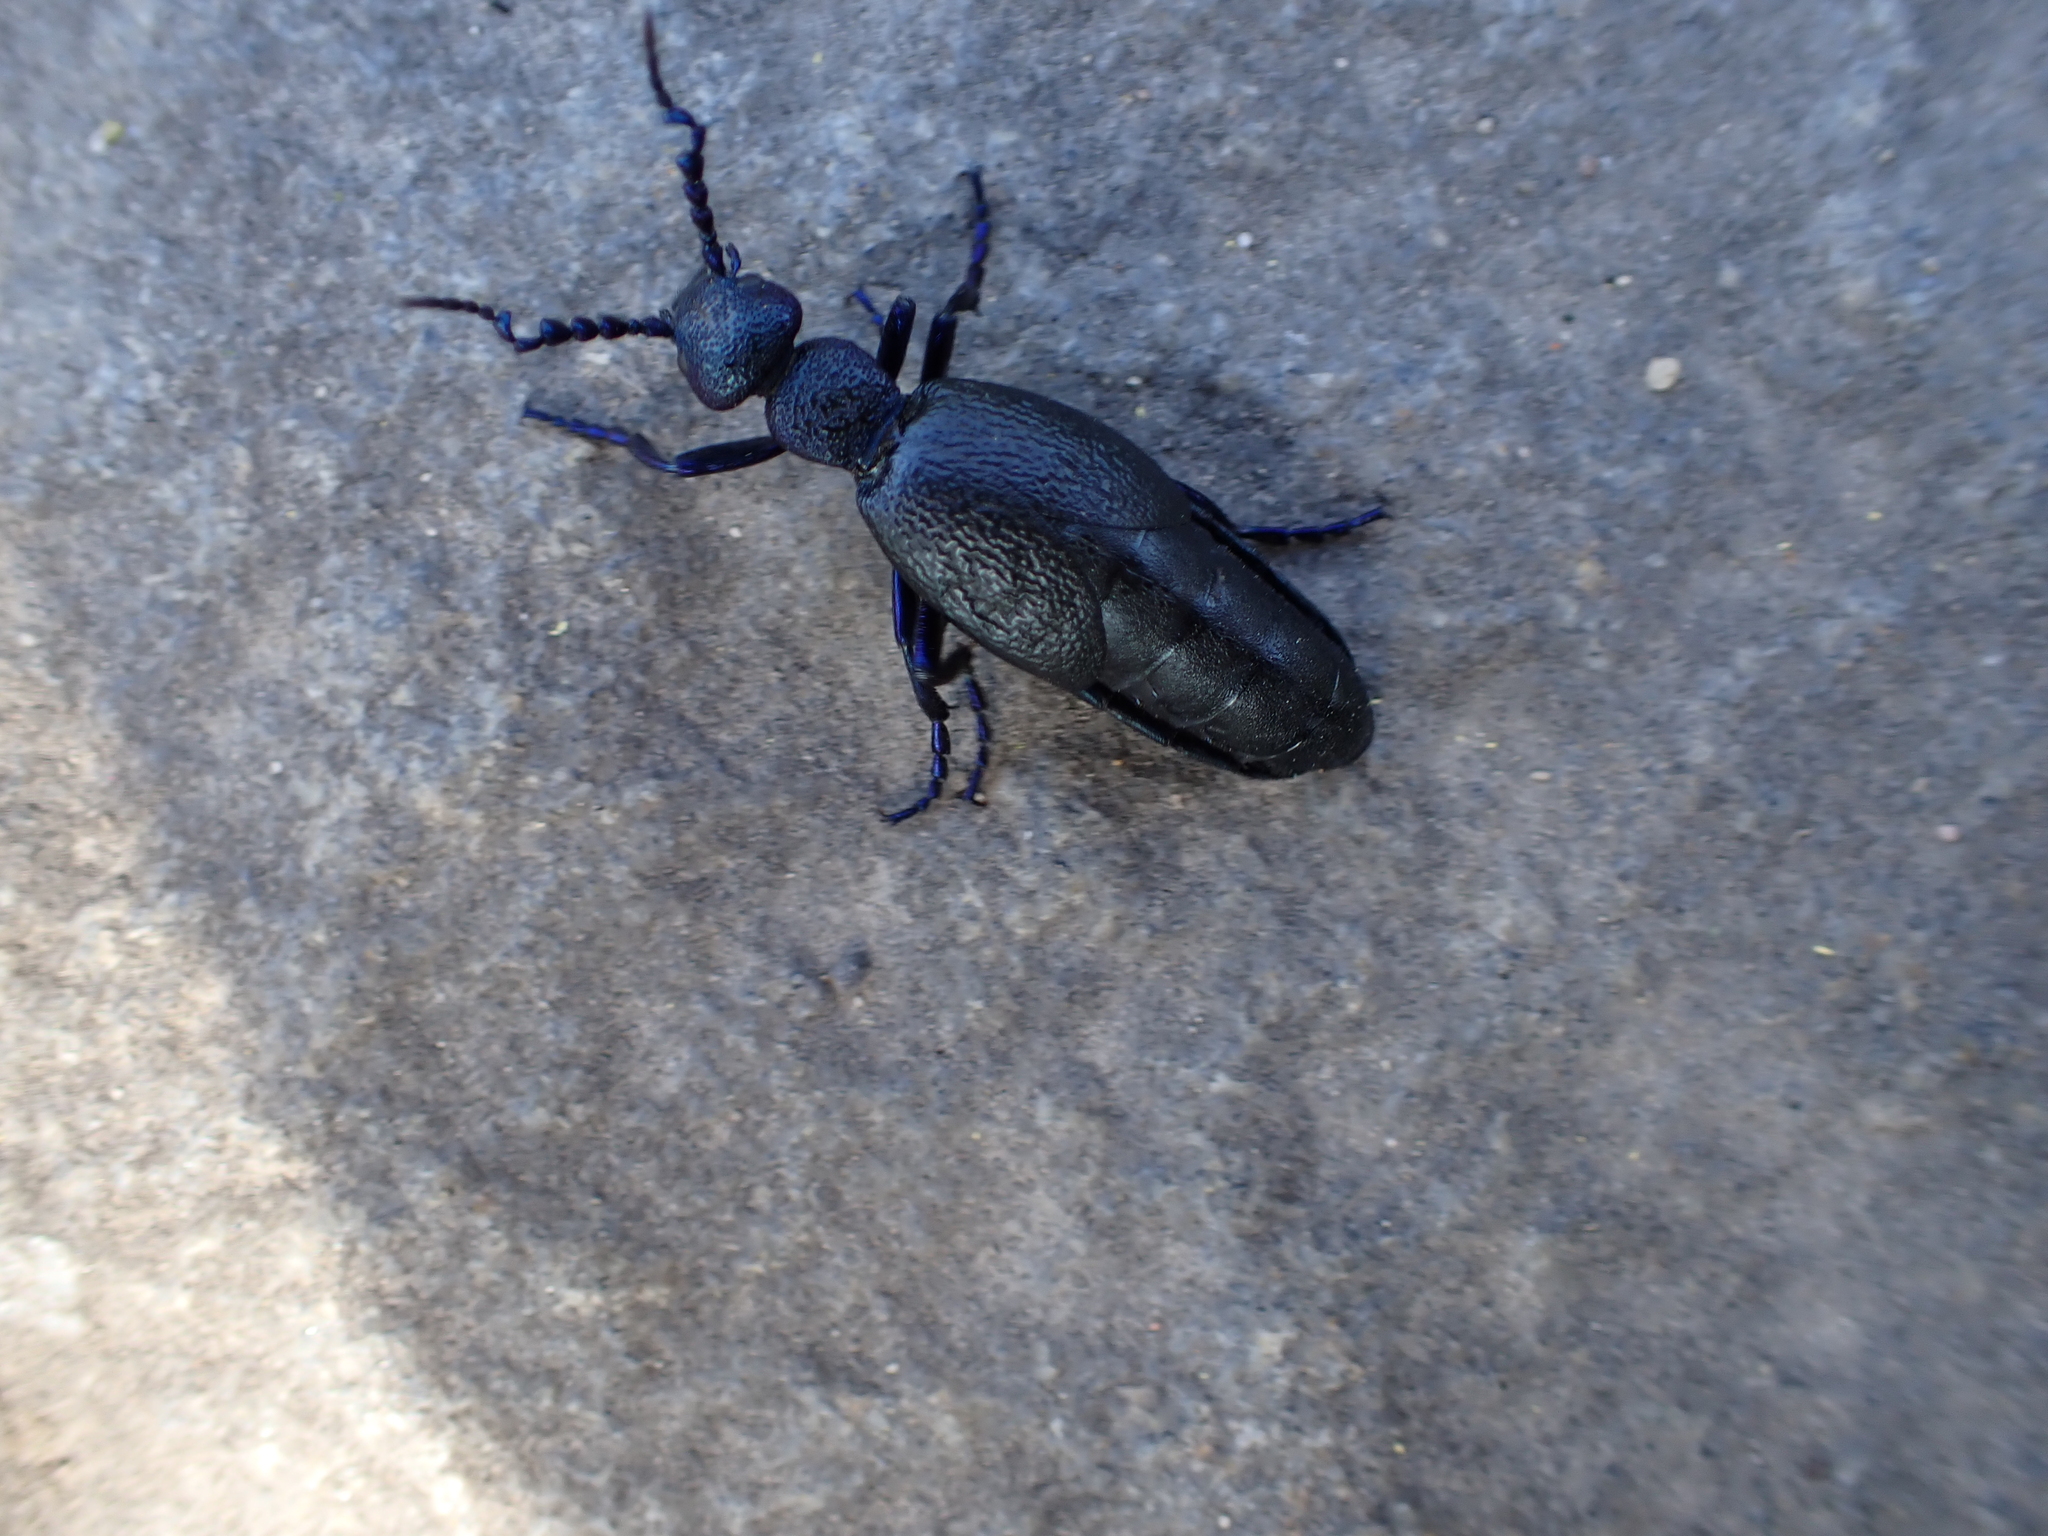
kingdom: Animalia
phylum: Arthropoda
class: Insecta
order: Coleoptera
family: Meloidae
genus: Meloe
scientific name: Meloe proscarabaeus
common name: Black oil-beetle
